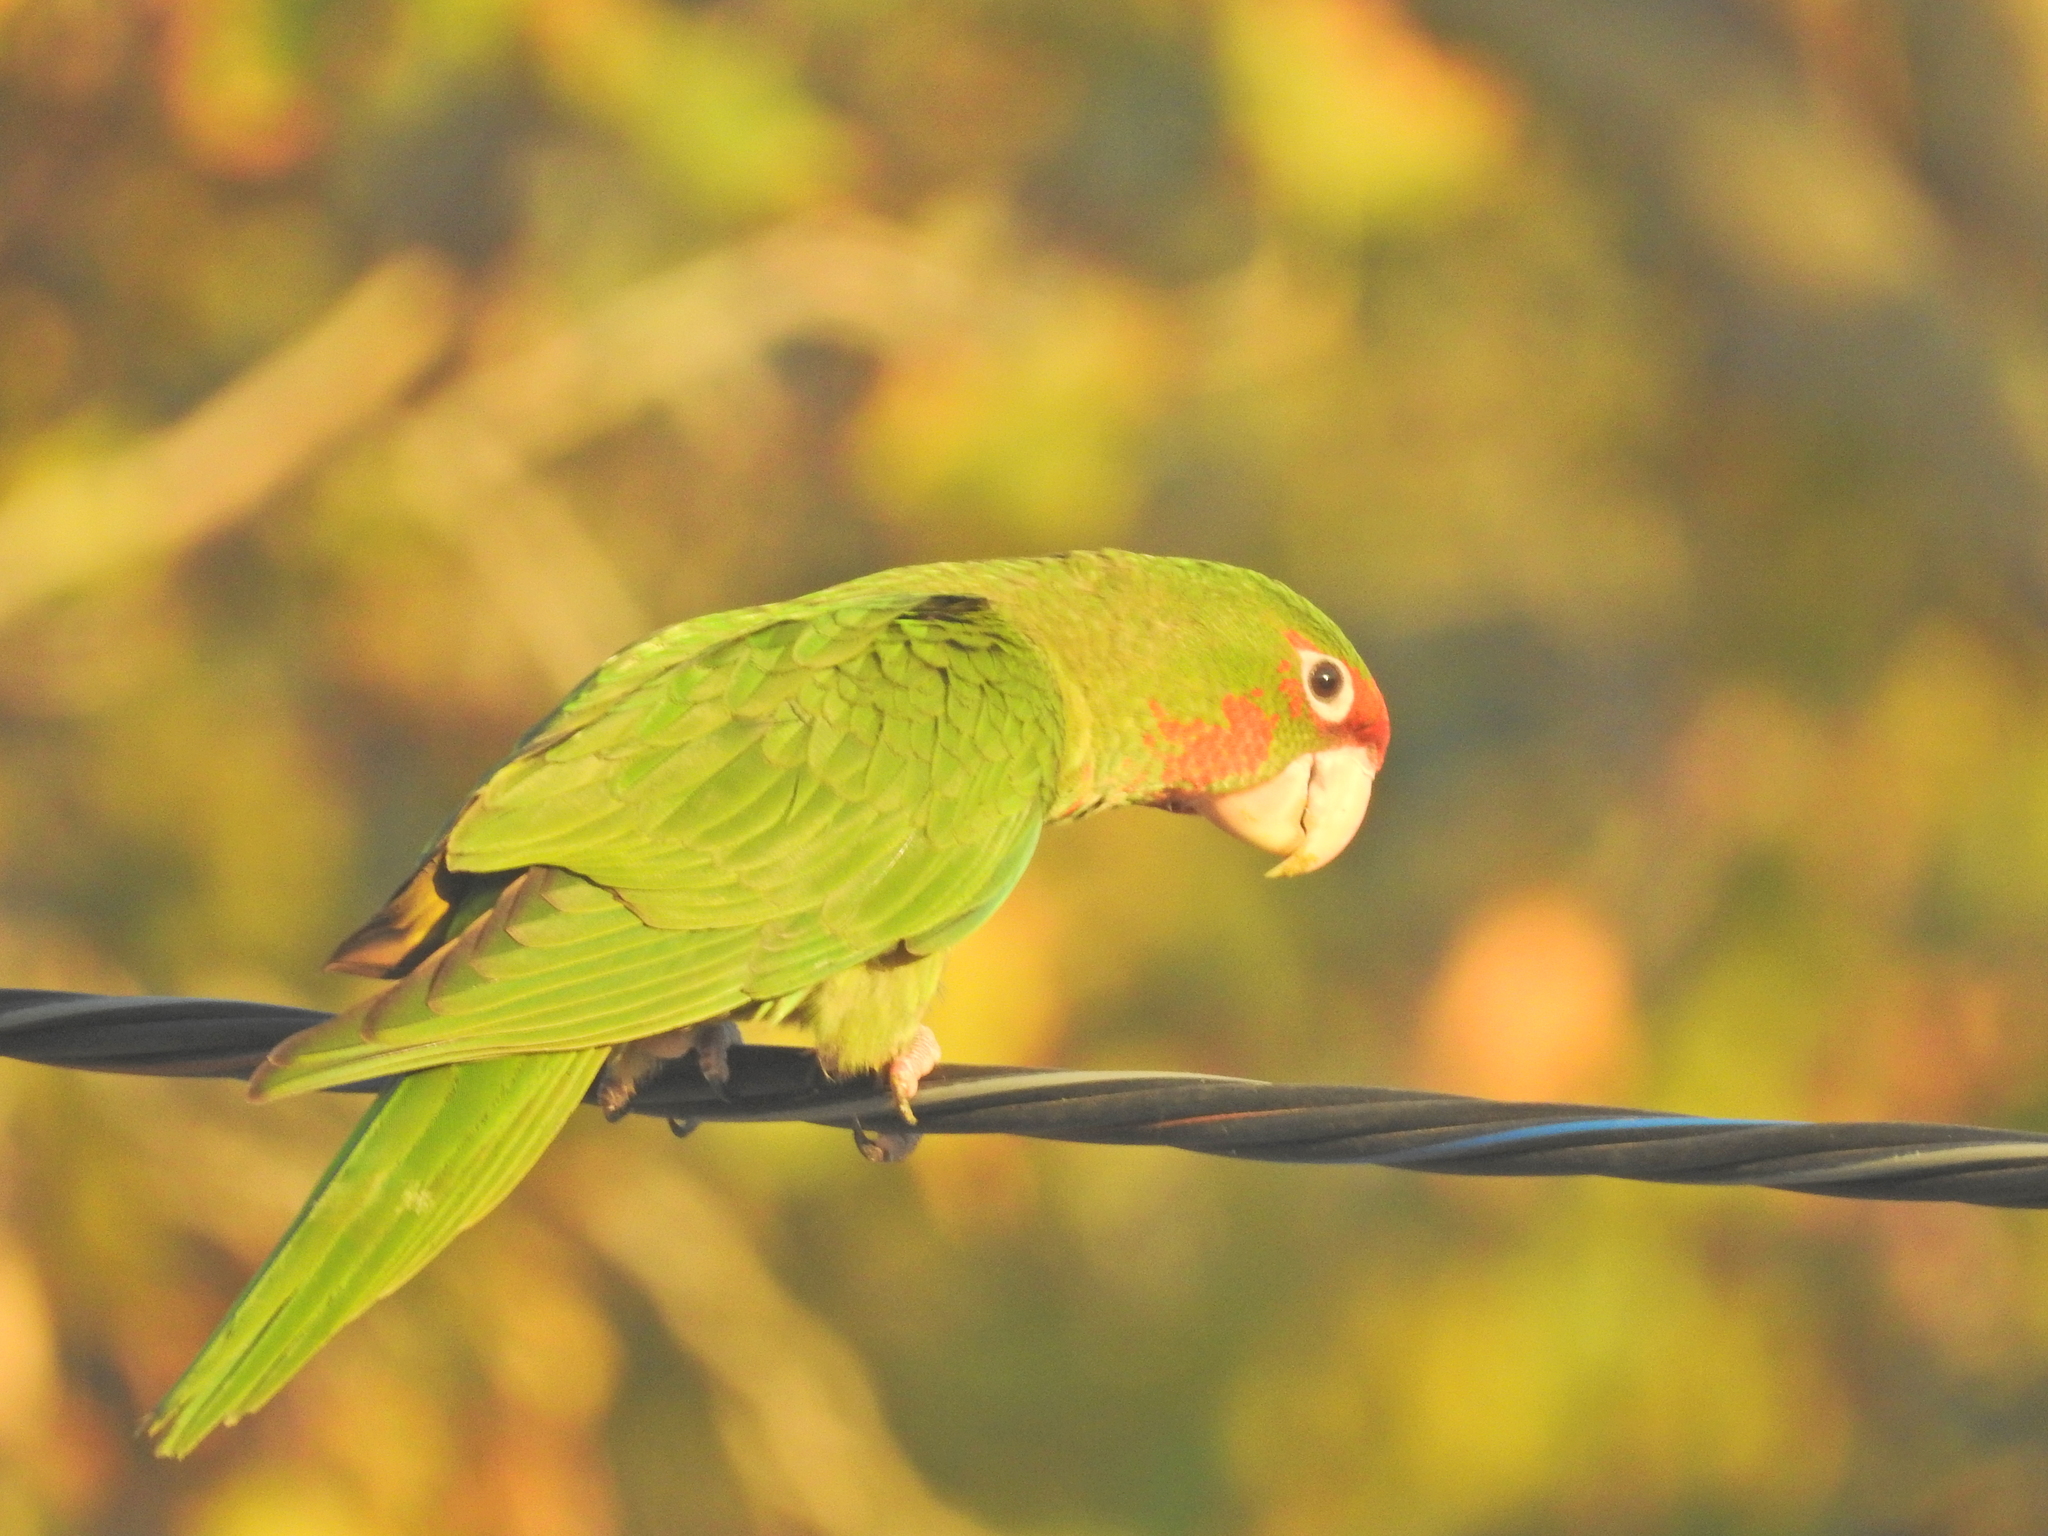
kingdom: Animalia
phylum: Chordata
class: Aves
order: Psittaciformes
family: Psittacidae
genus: Aratinga
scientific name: Aratinga mitrata
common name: Mitred parakeet
